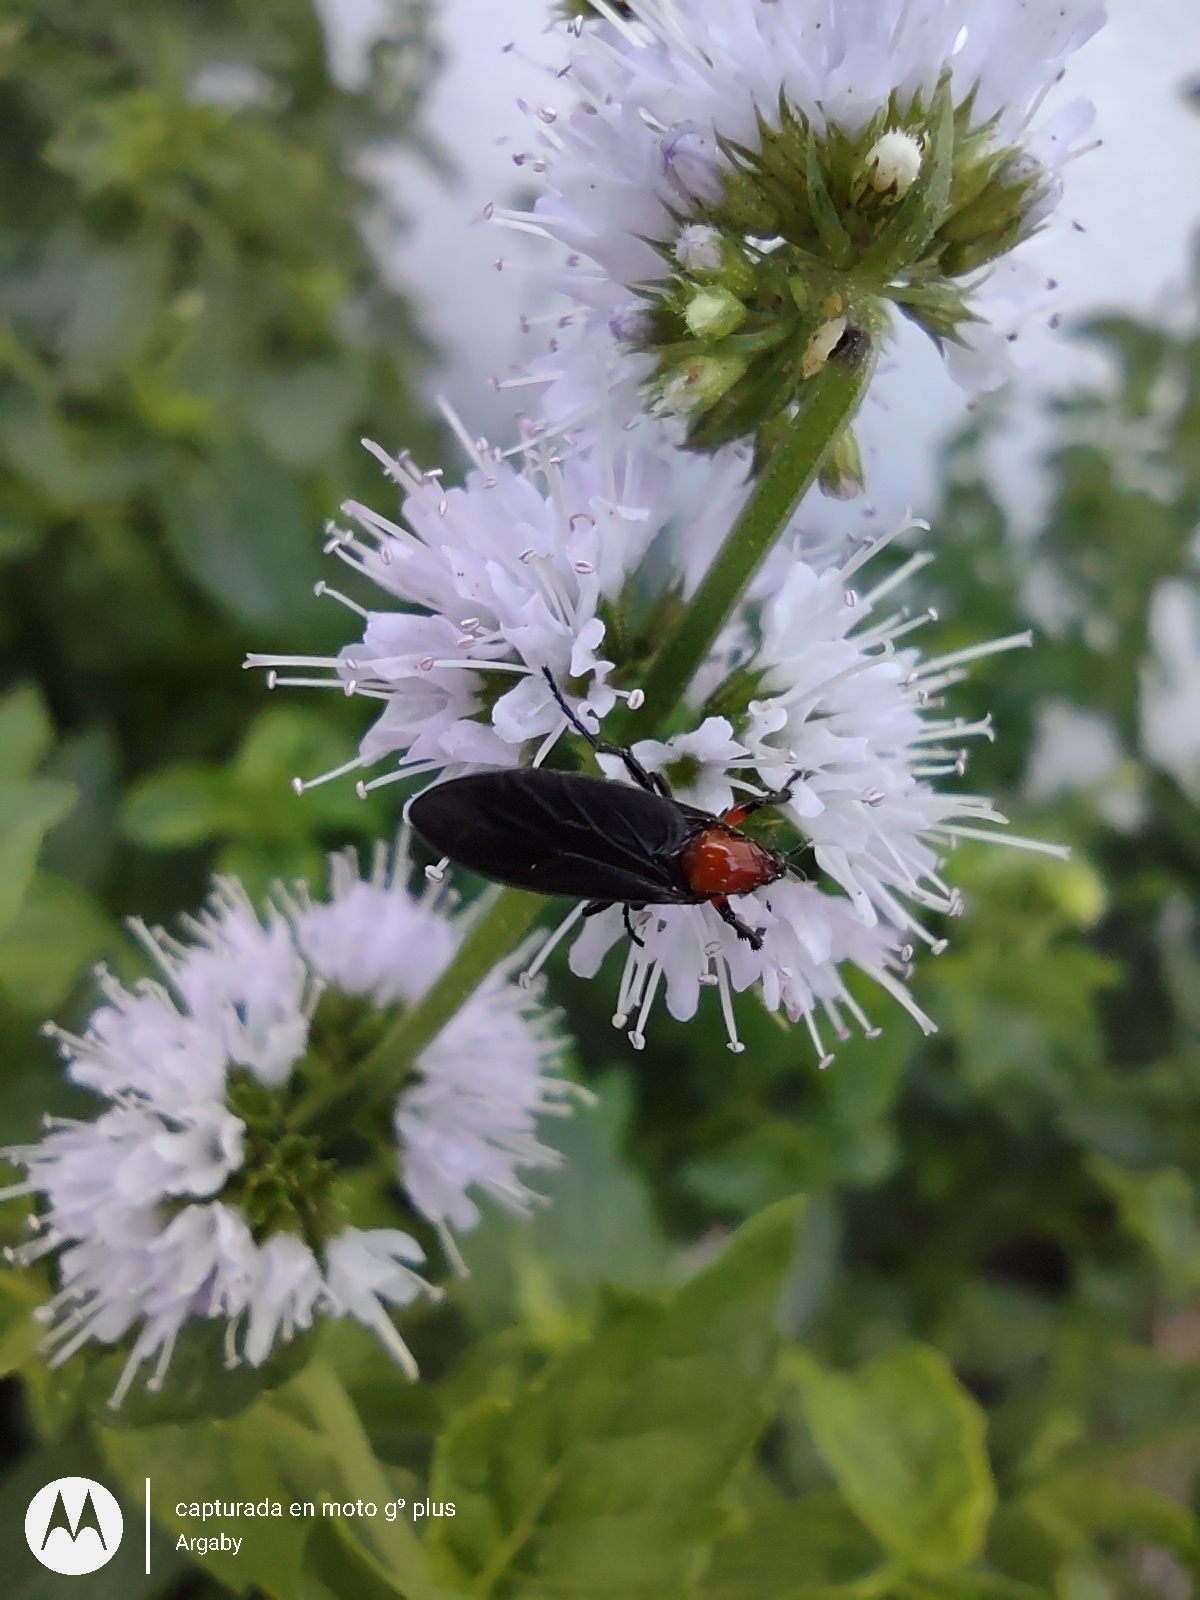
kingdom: Animalia
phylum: Arthropoda
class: Insecta
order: Diptera
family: Bibionidae
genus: Dilophus
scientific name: Dilophus pectoralis
